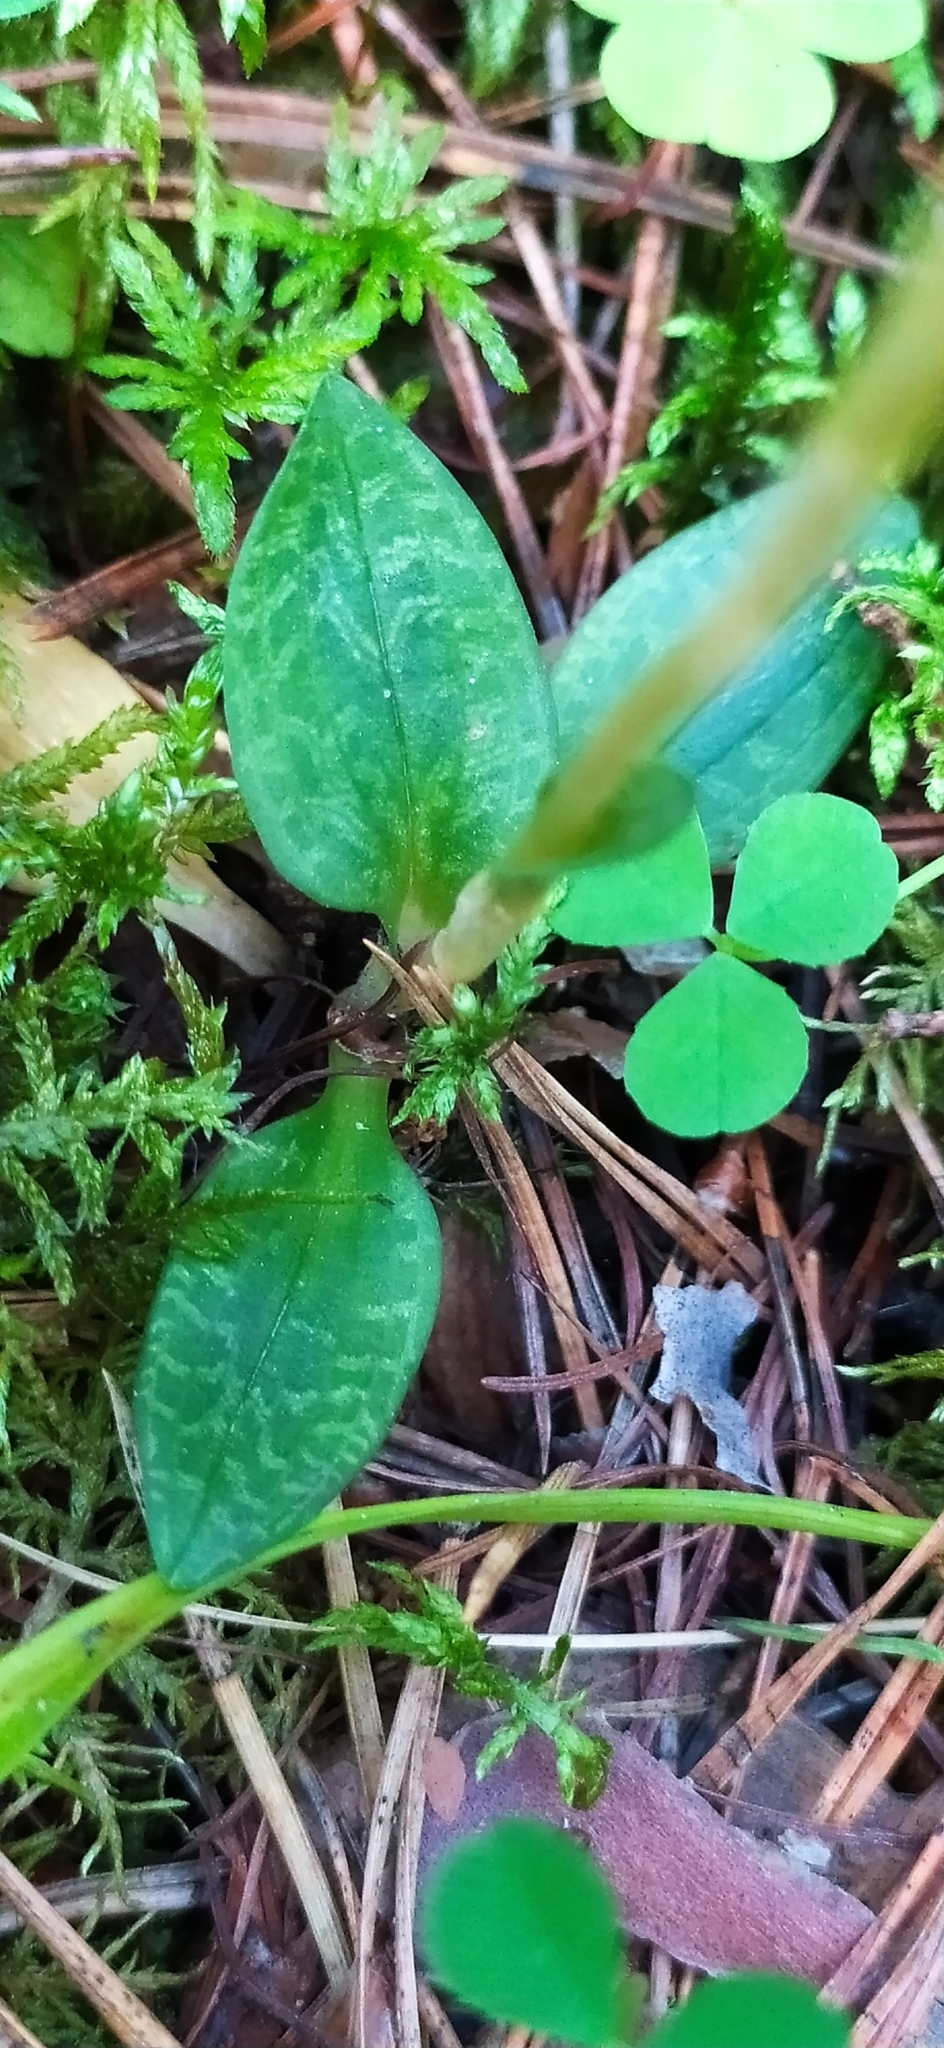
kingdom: Plantae
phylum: Tracheophyta
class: Liliopsida
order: Asparagales
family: Orchidaceae
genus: Goodyera
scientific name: Goodyera repens
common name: Creeping lady's-tresses
